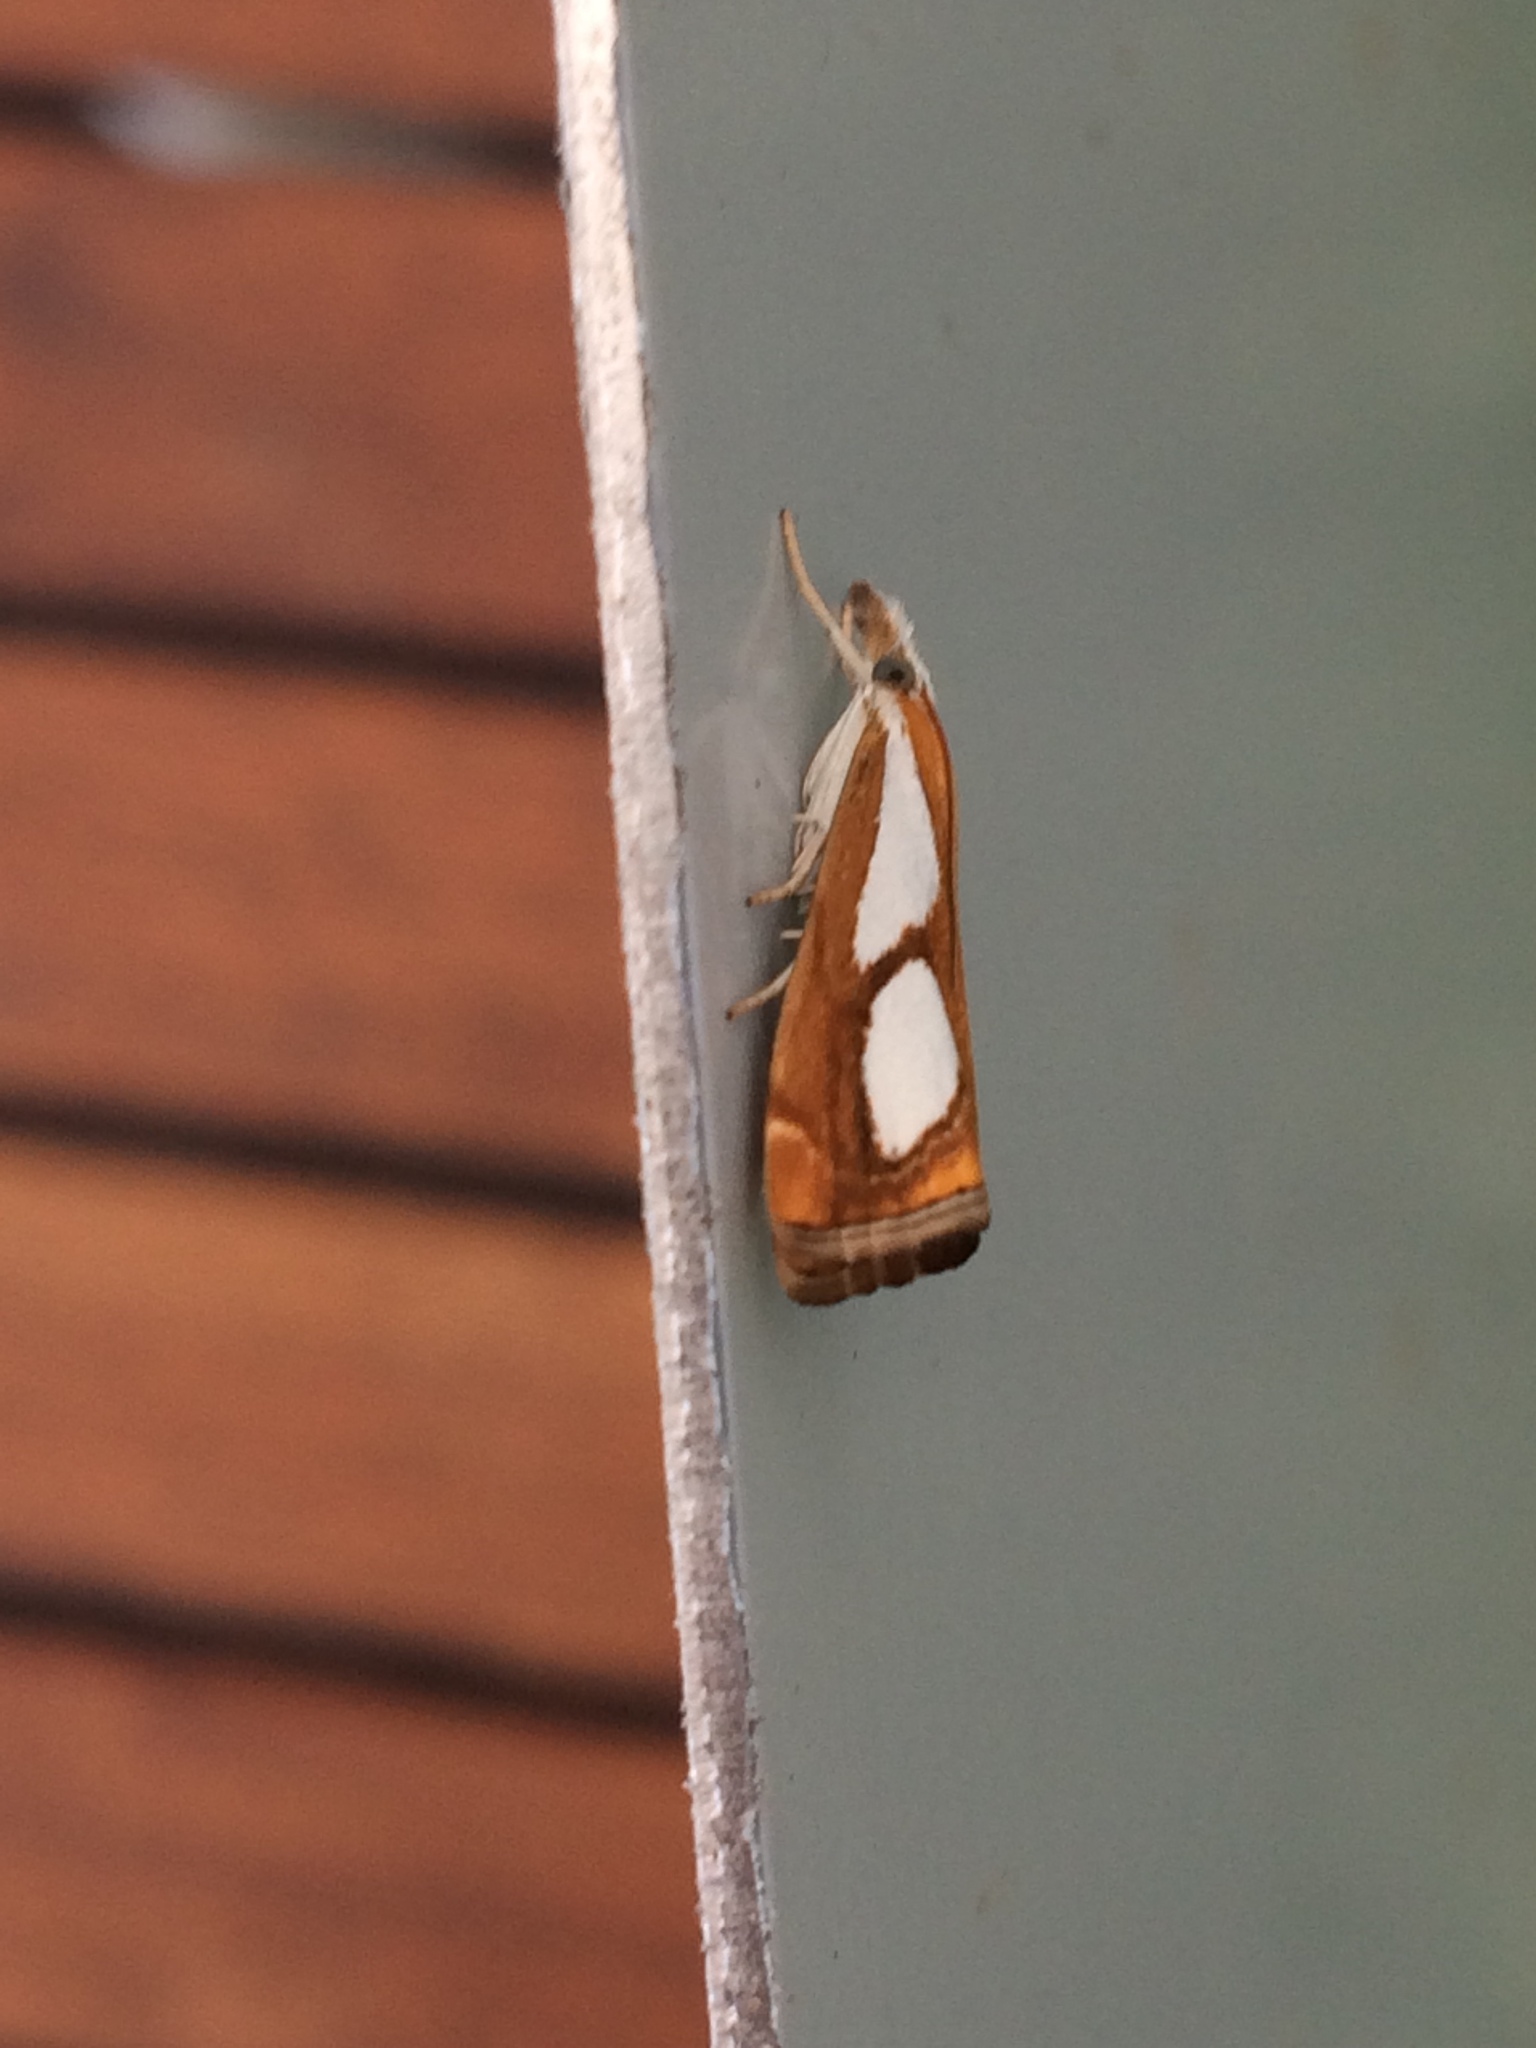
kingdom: Animalia
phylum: Arthropoda
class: Insecta
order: Lepidoptera
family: Crambidae
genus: Catoptria
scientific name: Catoptria pinella
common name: Pearl grass-veneer
